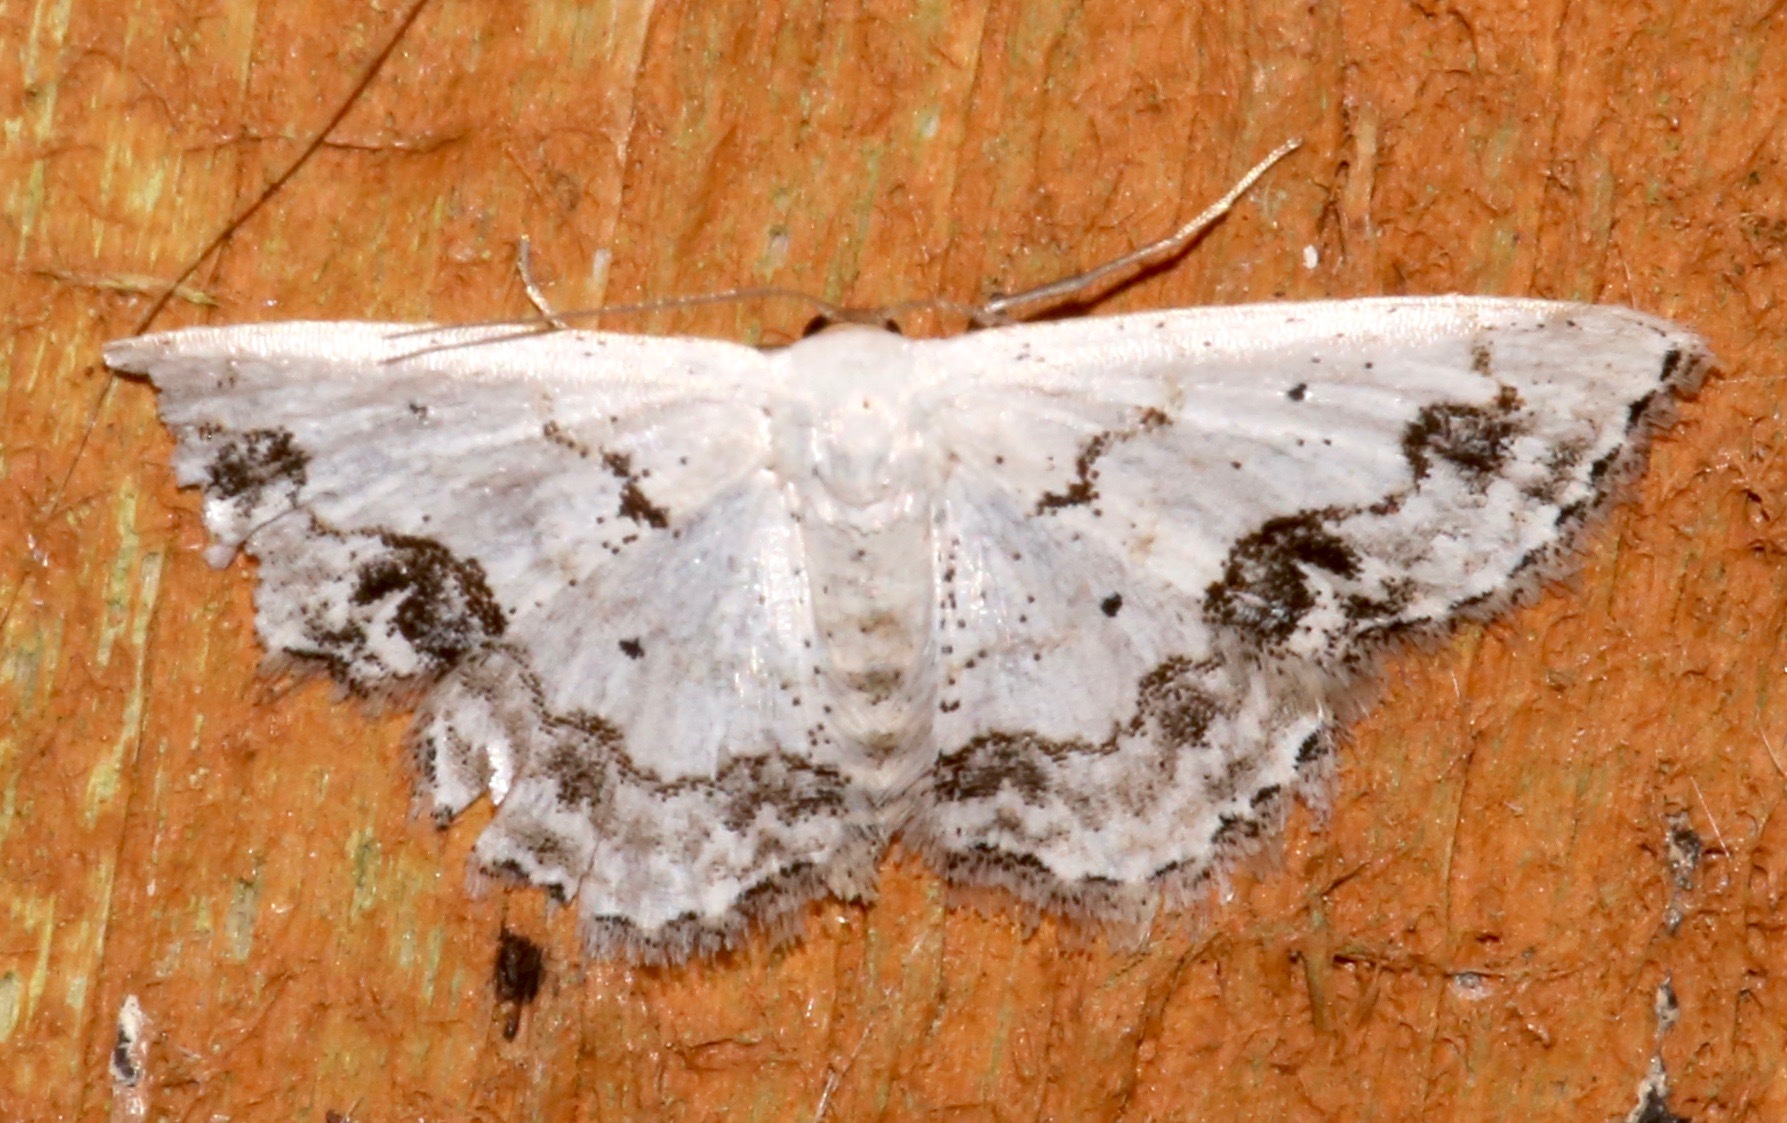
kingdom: Animalia
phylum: Arthropoda
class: Insecta
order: Lepidoptera
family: Geometridae
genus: Scopula
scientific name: Scopula lautaria
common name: Small frosted wave moth
